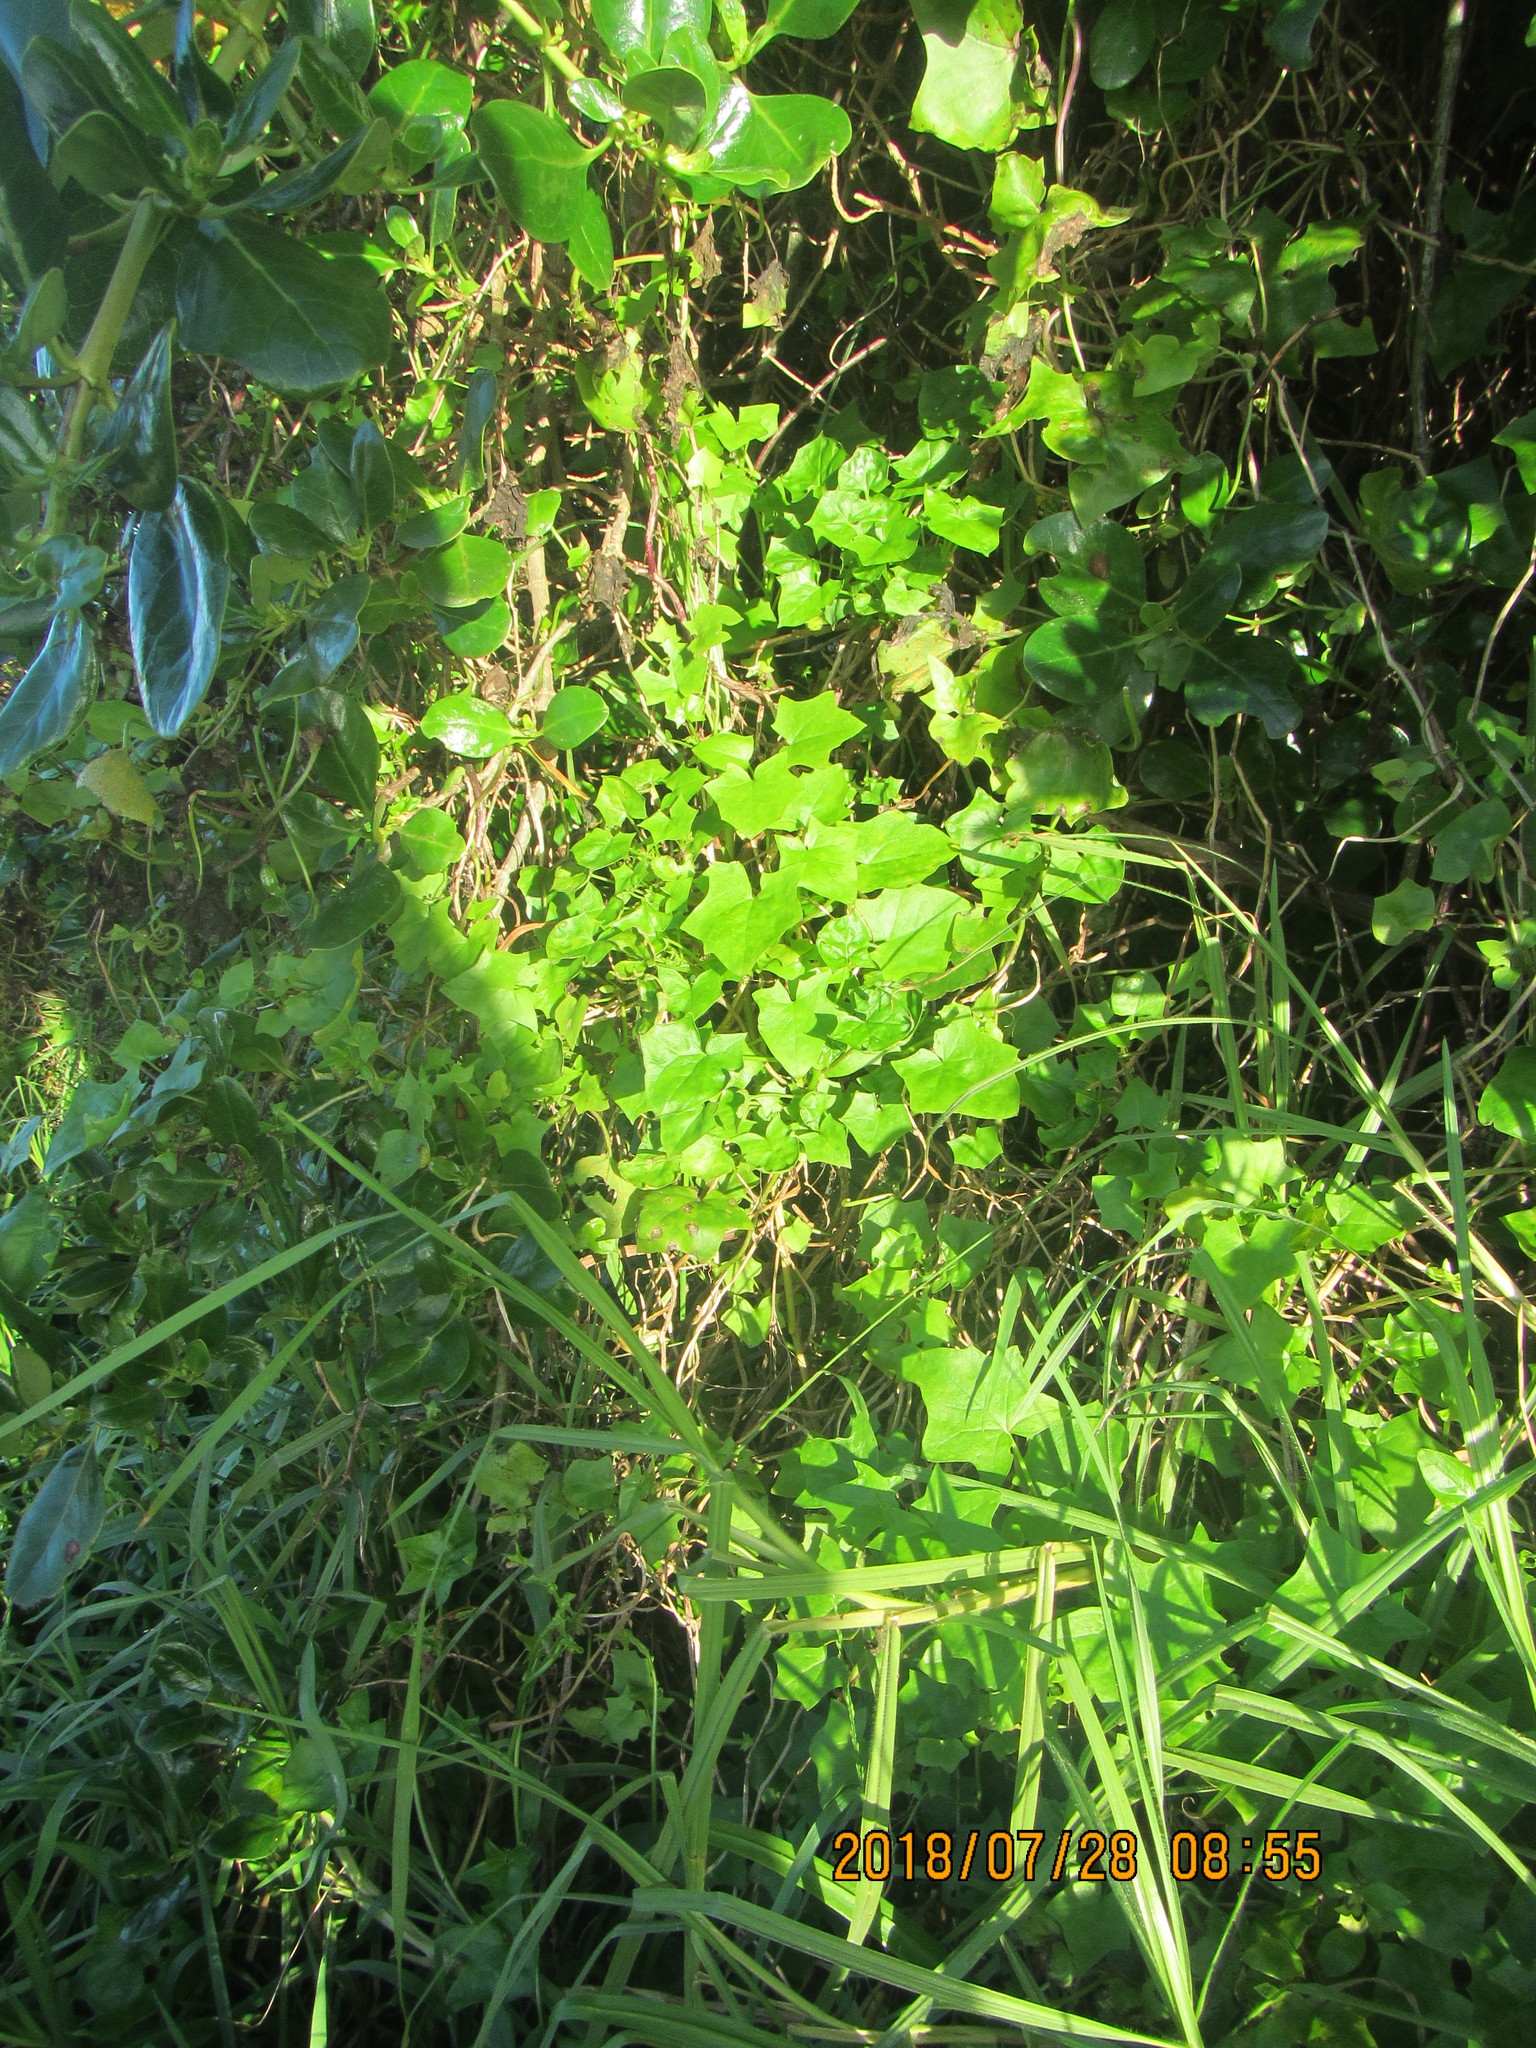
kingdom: Plantae
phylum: Tracheophyta
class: Magnoliopsida
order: Asterales
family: Asteraceae
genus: Delairea
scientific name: Delairea odorata
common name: Cape-ivy
